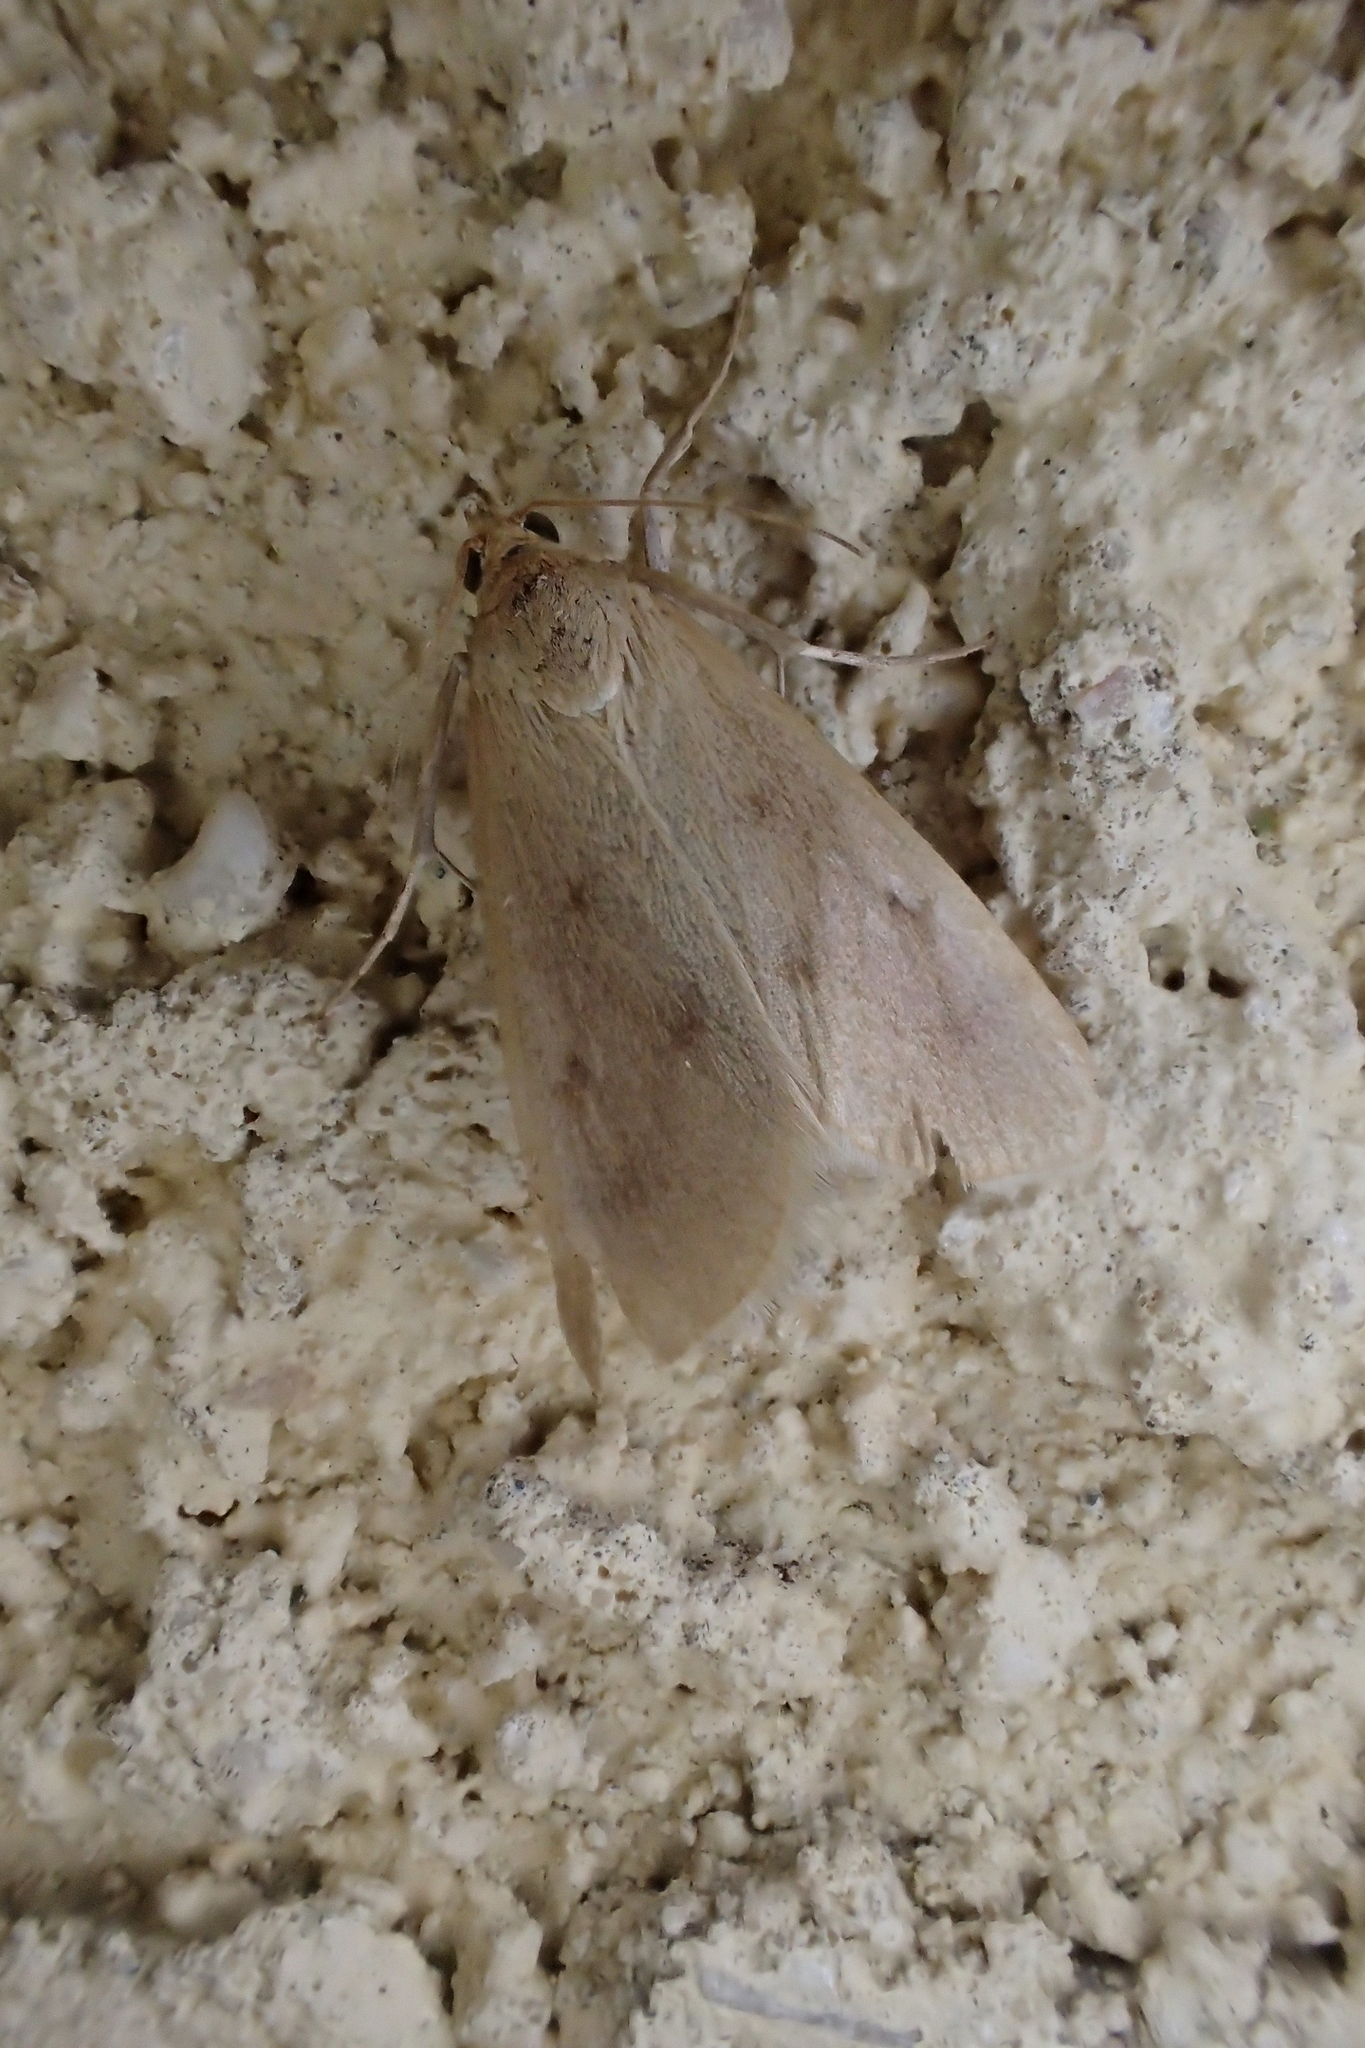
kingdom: Animalia
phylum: Arthropoda
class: Insecta
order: Lepidoptera
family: Crambidae
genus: Achyra
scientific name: Achyra nudalis
